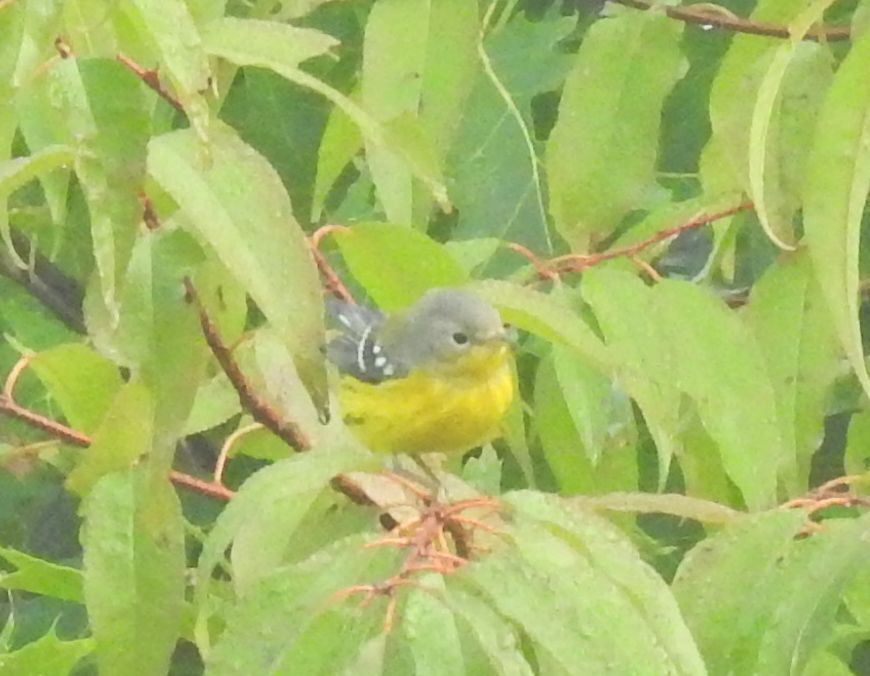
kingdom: Animalia
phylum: Chordata
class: Aves
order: Passeriformes
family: Parulidae
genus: Setophaga
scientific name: Setophaga magnolia
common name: Magnolia warbler
